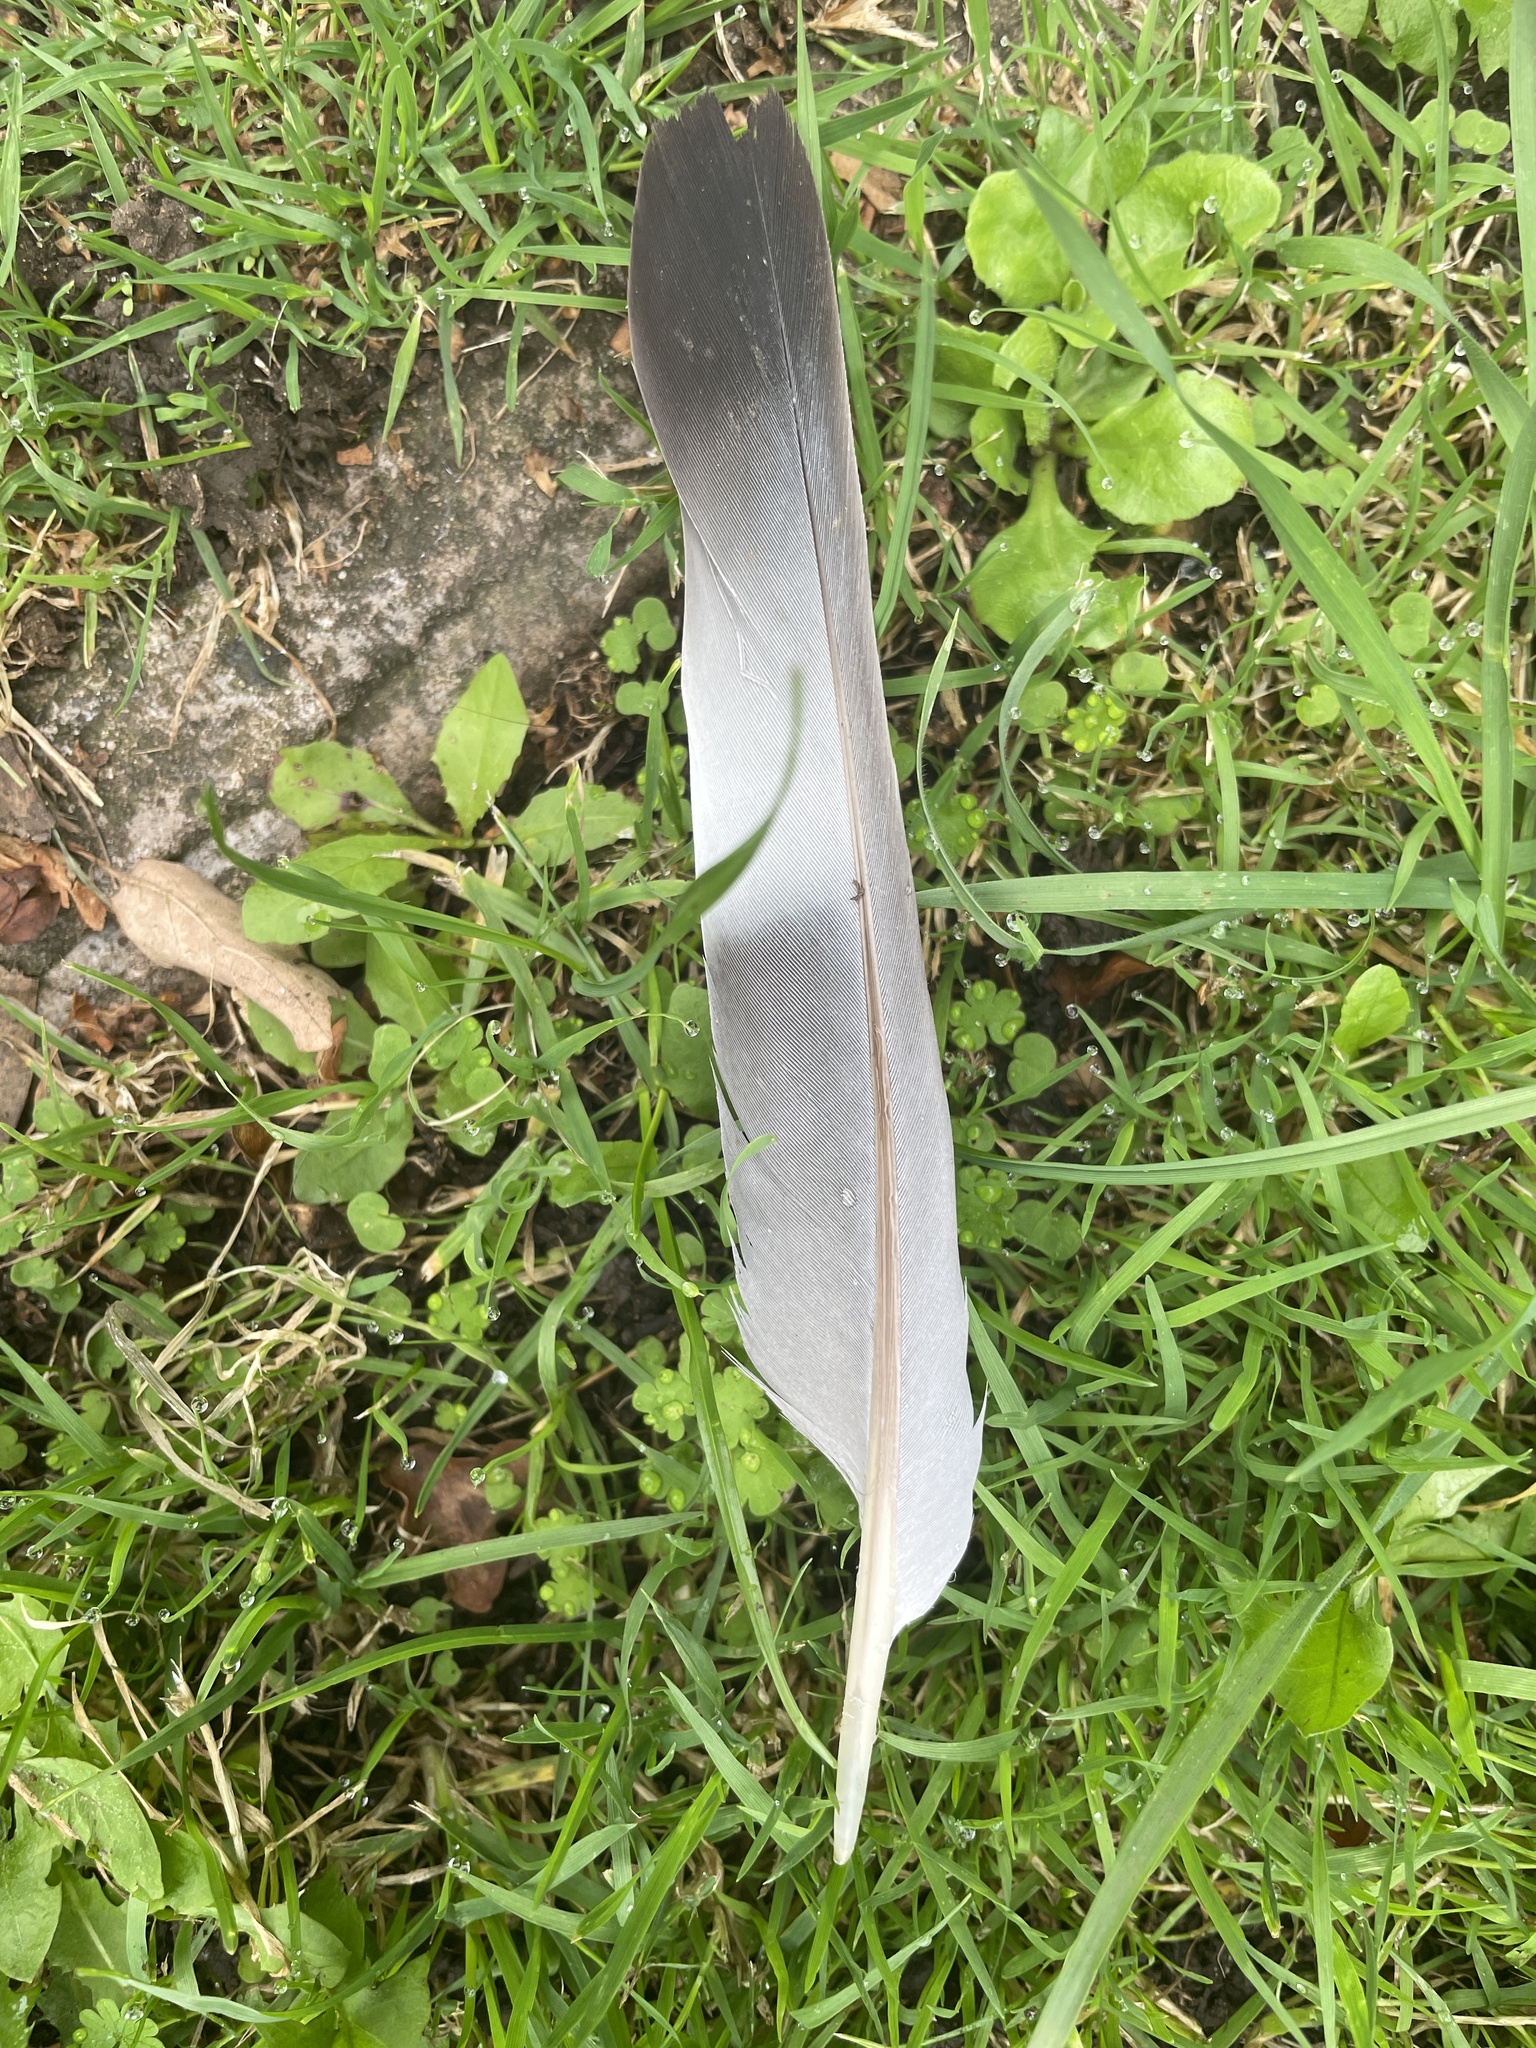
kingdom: Animalia
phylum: Chordata
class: Aves
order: Columbiformes
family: Columbidae
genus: Columba
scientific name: Columba palumbus
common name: Common wood pigeon
